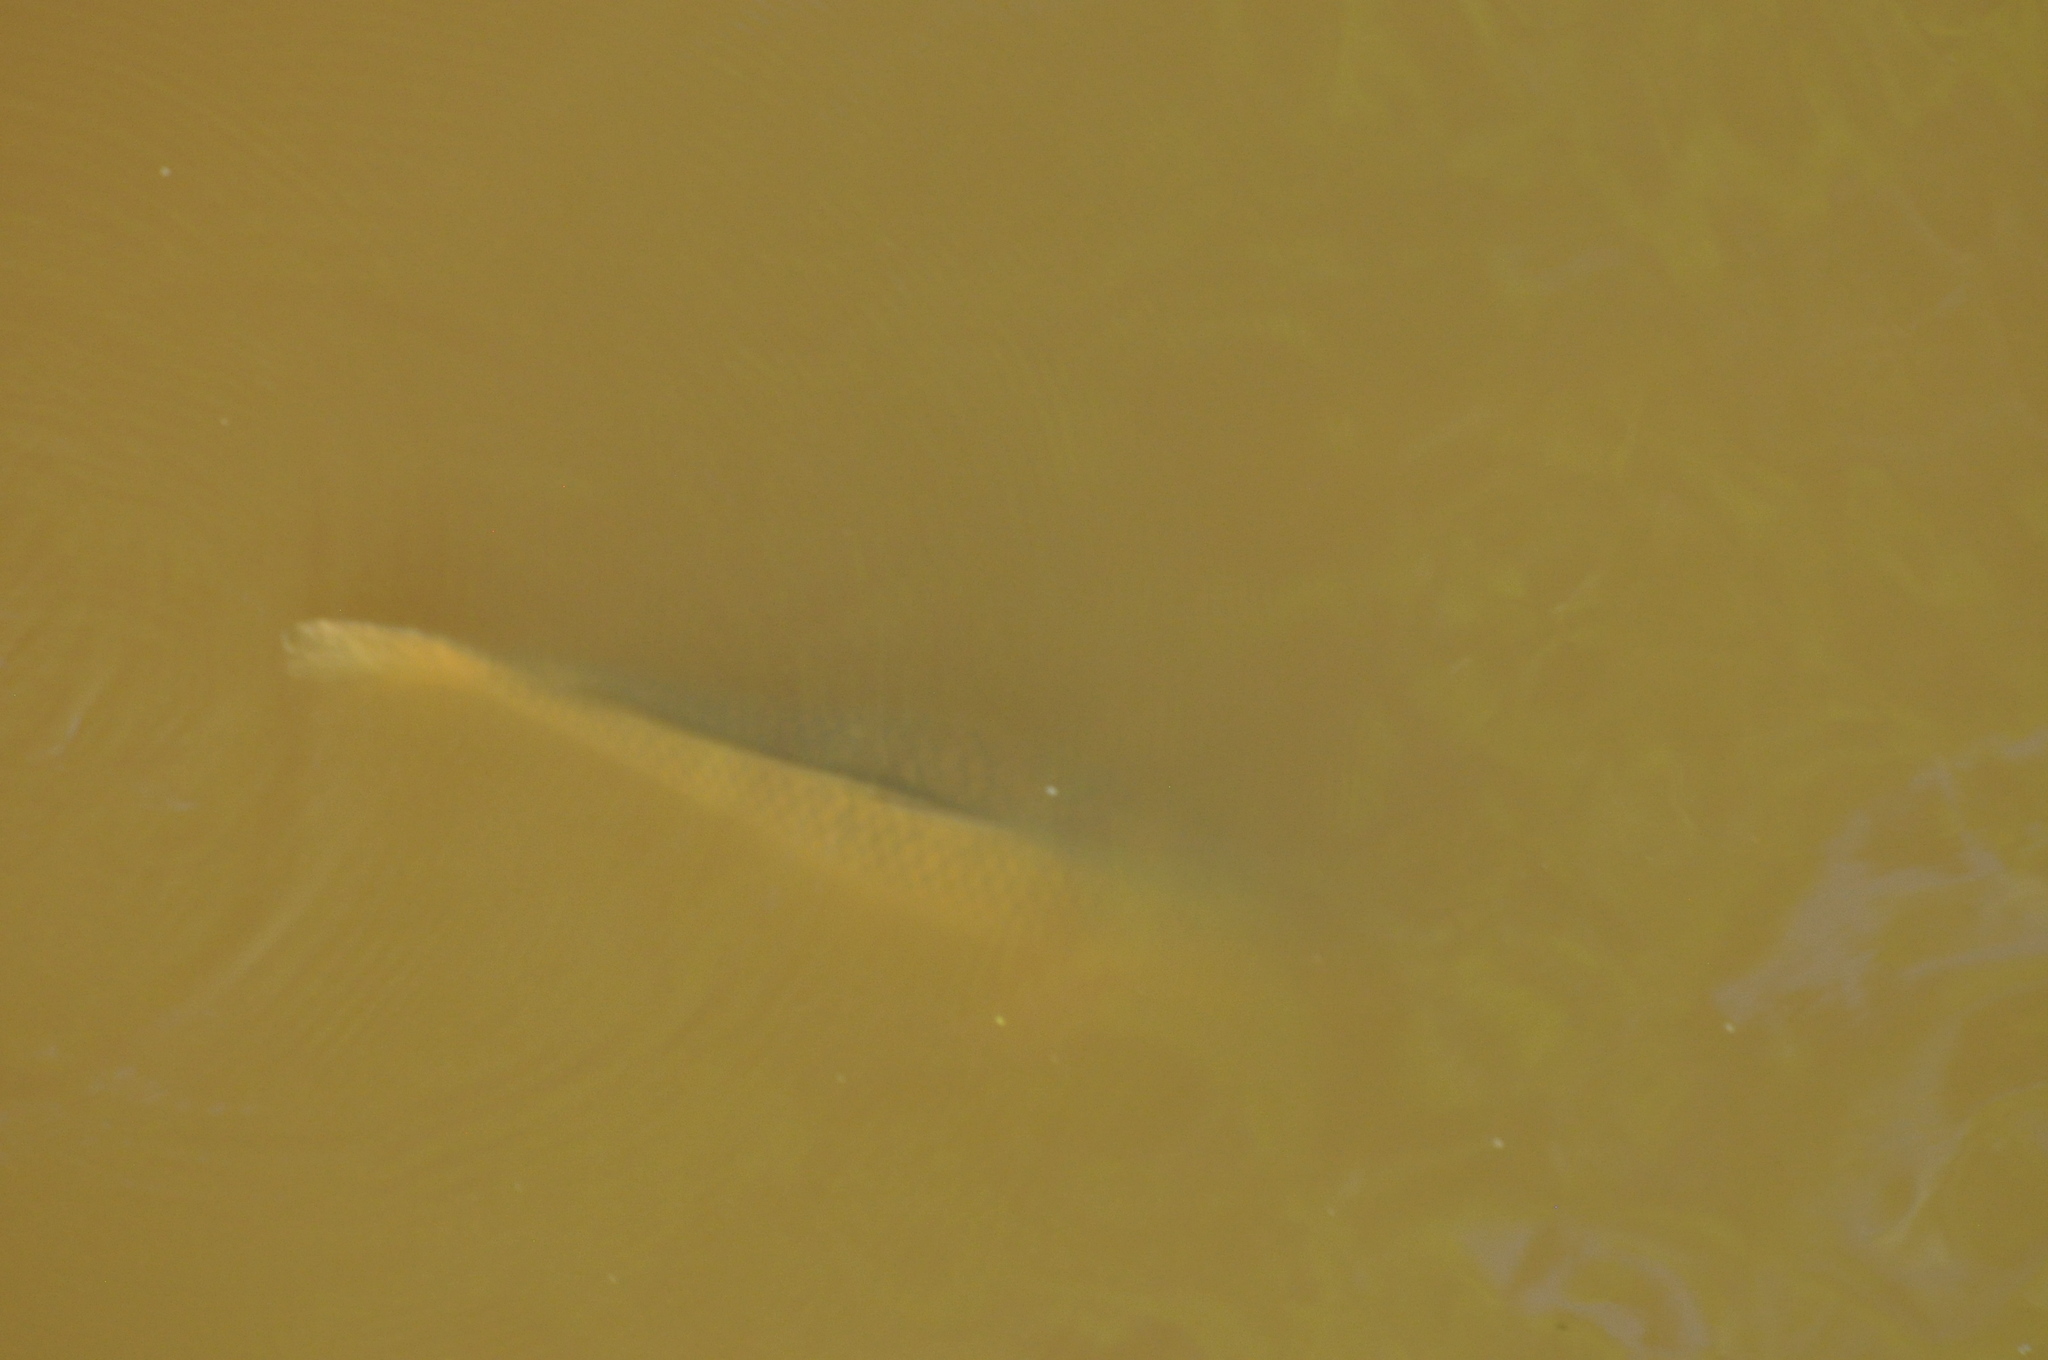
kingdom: Animalia
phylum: Chordata
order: Cypriniformes
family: Cyprinidae
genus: Cyprinus
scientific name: Cyprinus carpio
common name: Common carp
